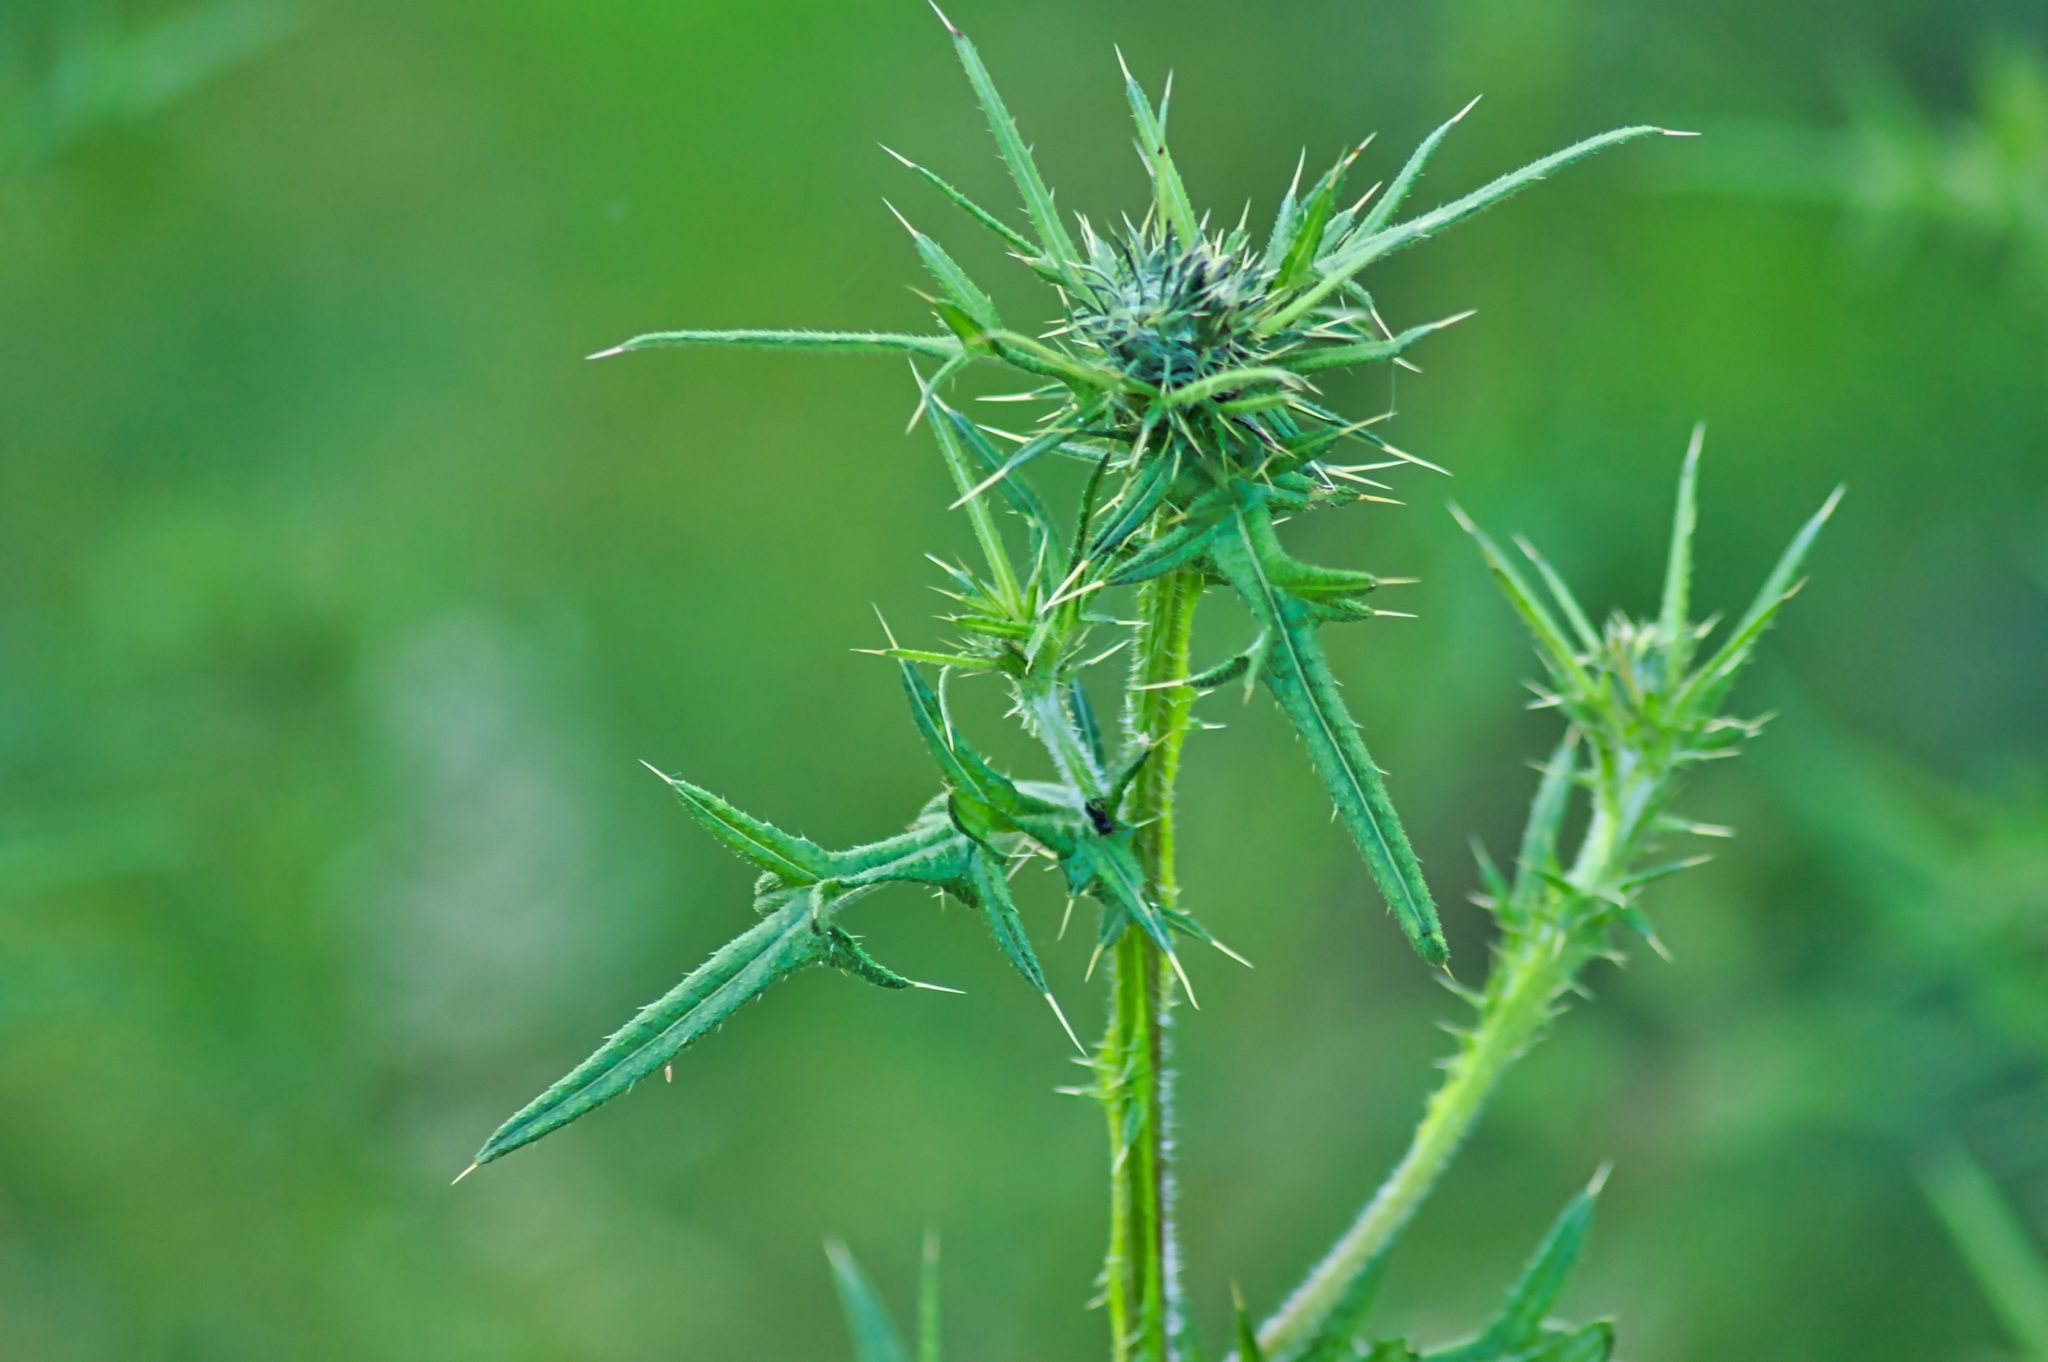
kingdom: Plantae
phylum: Tracheophyta
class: Magnoliopsida
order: Asterales
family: Asteraceae
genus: Cirsium
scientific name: Cirsium vulgare
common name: Bull thistle
